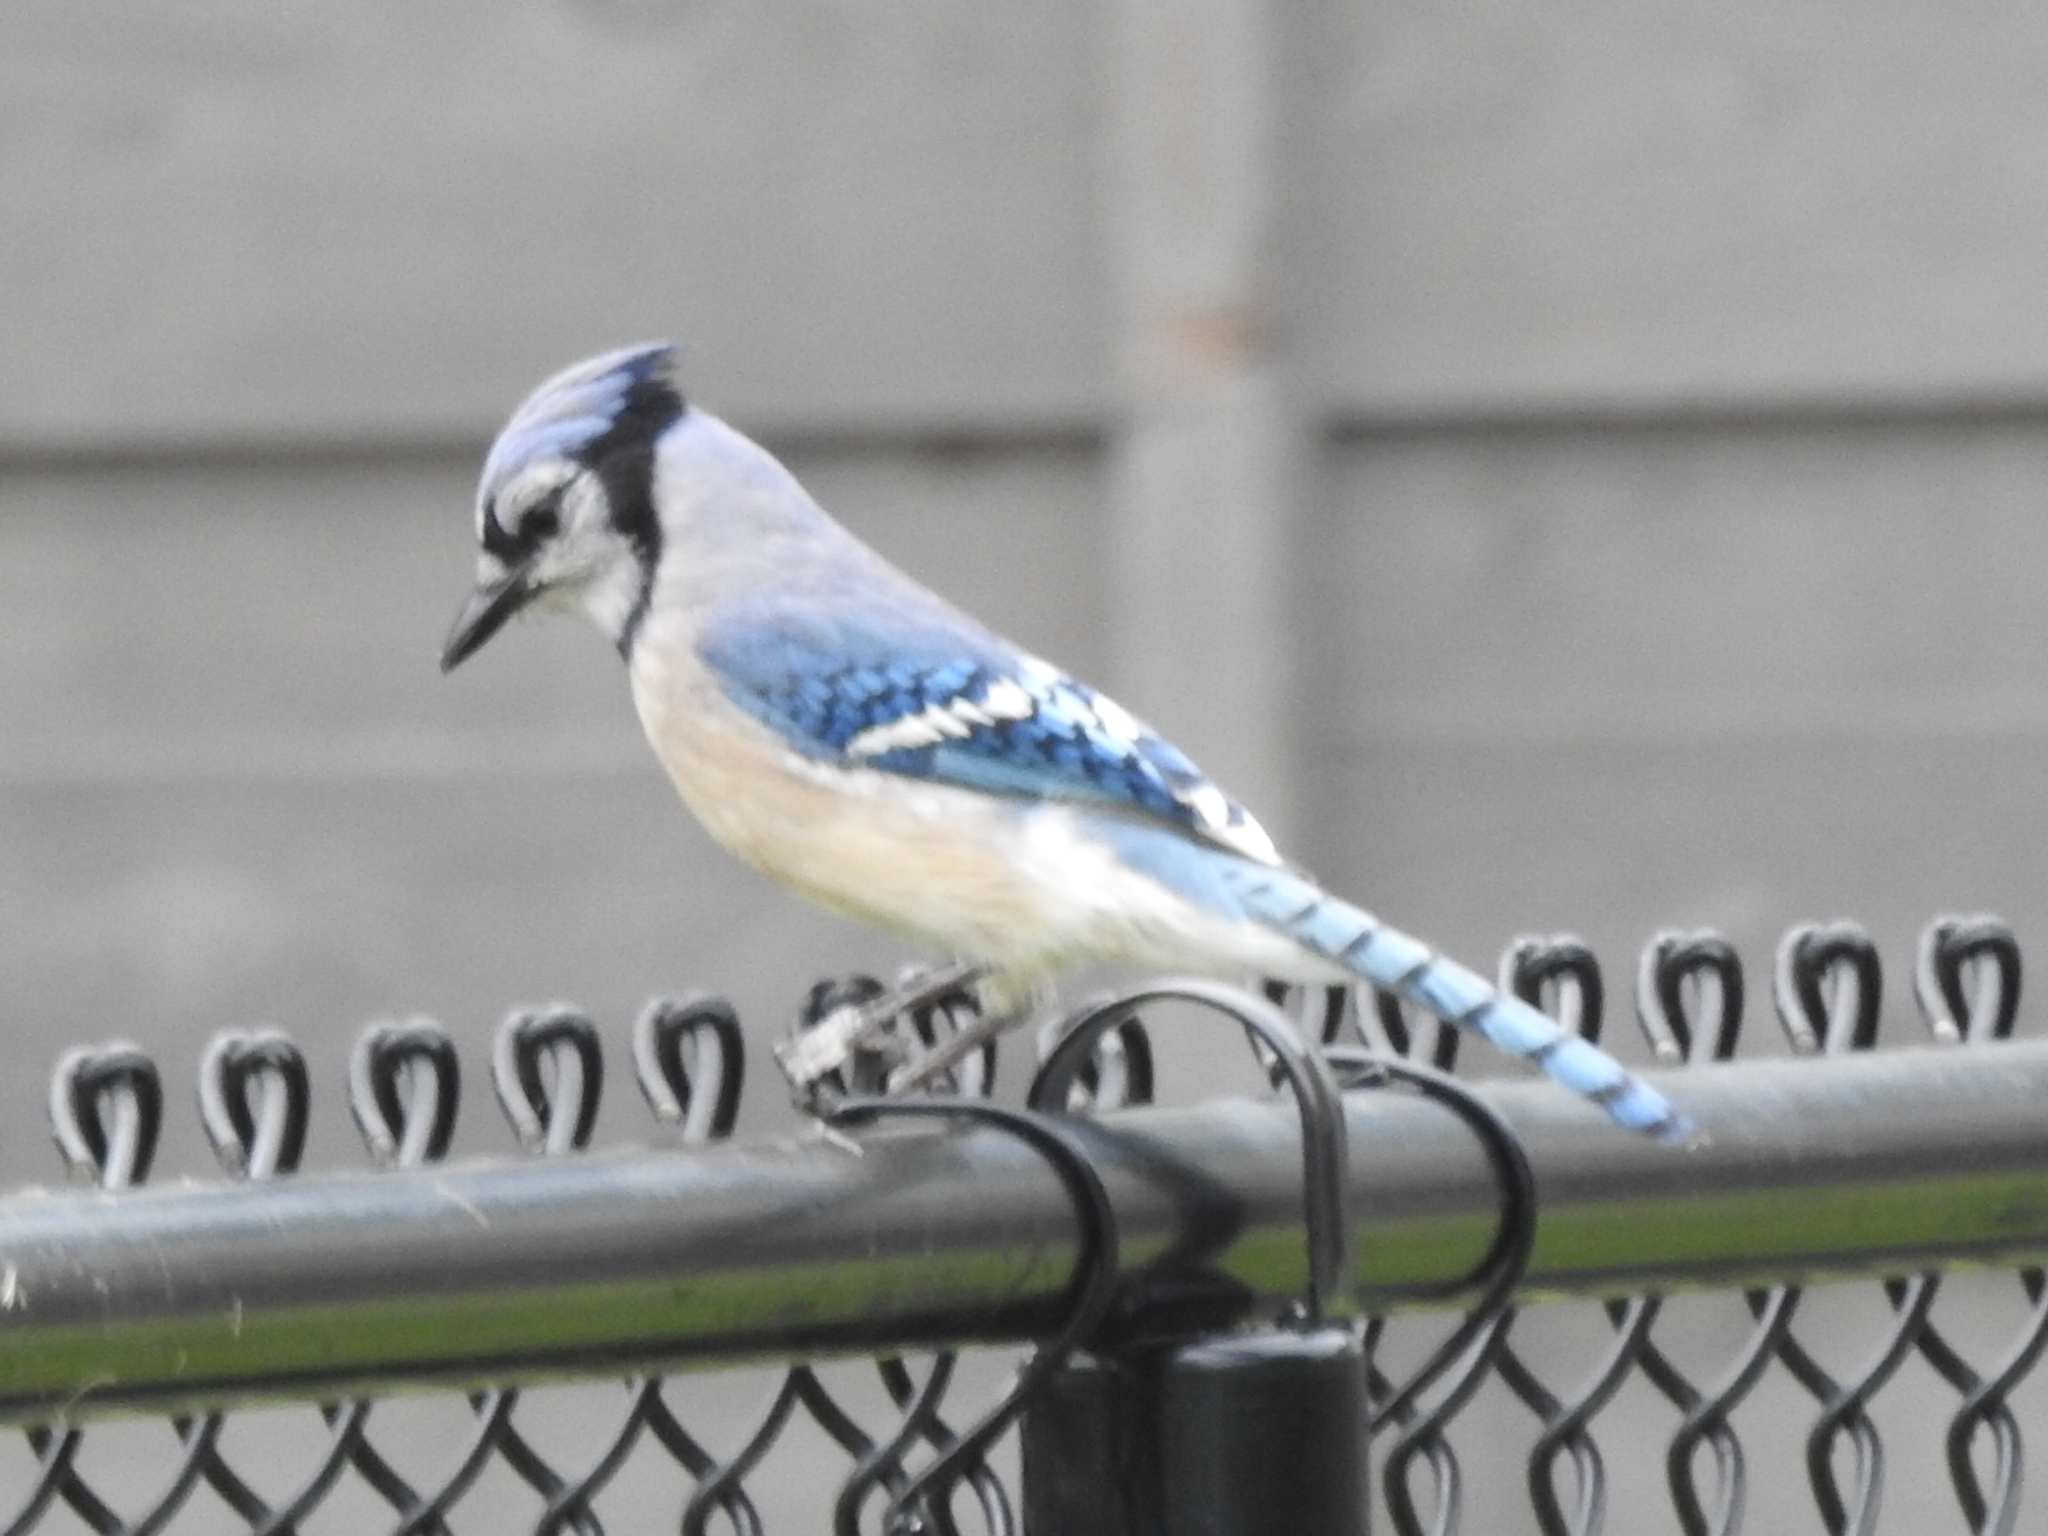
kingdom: Animalia
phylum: Chordata
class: Aves
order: Passeriformes
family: Corvidae
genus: Cyanocitta
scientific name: Cyanocitta cristata
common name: Blue jay
